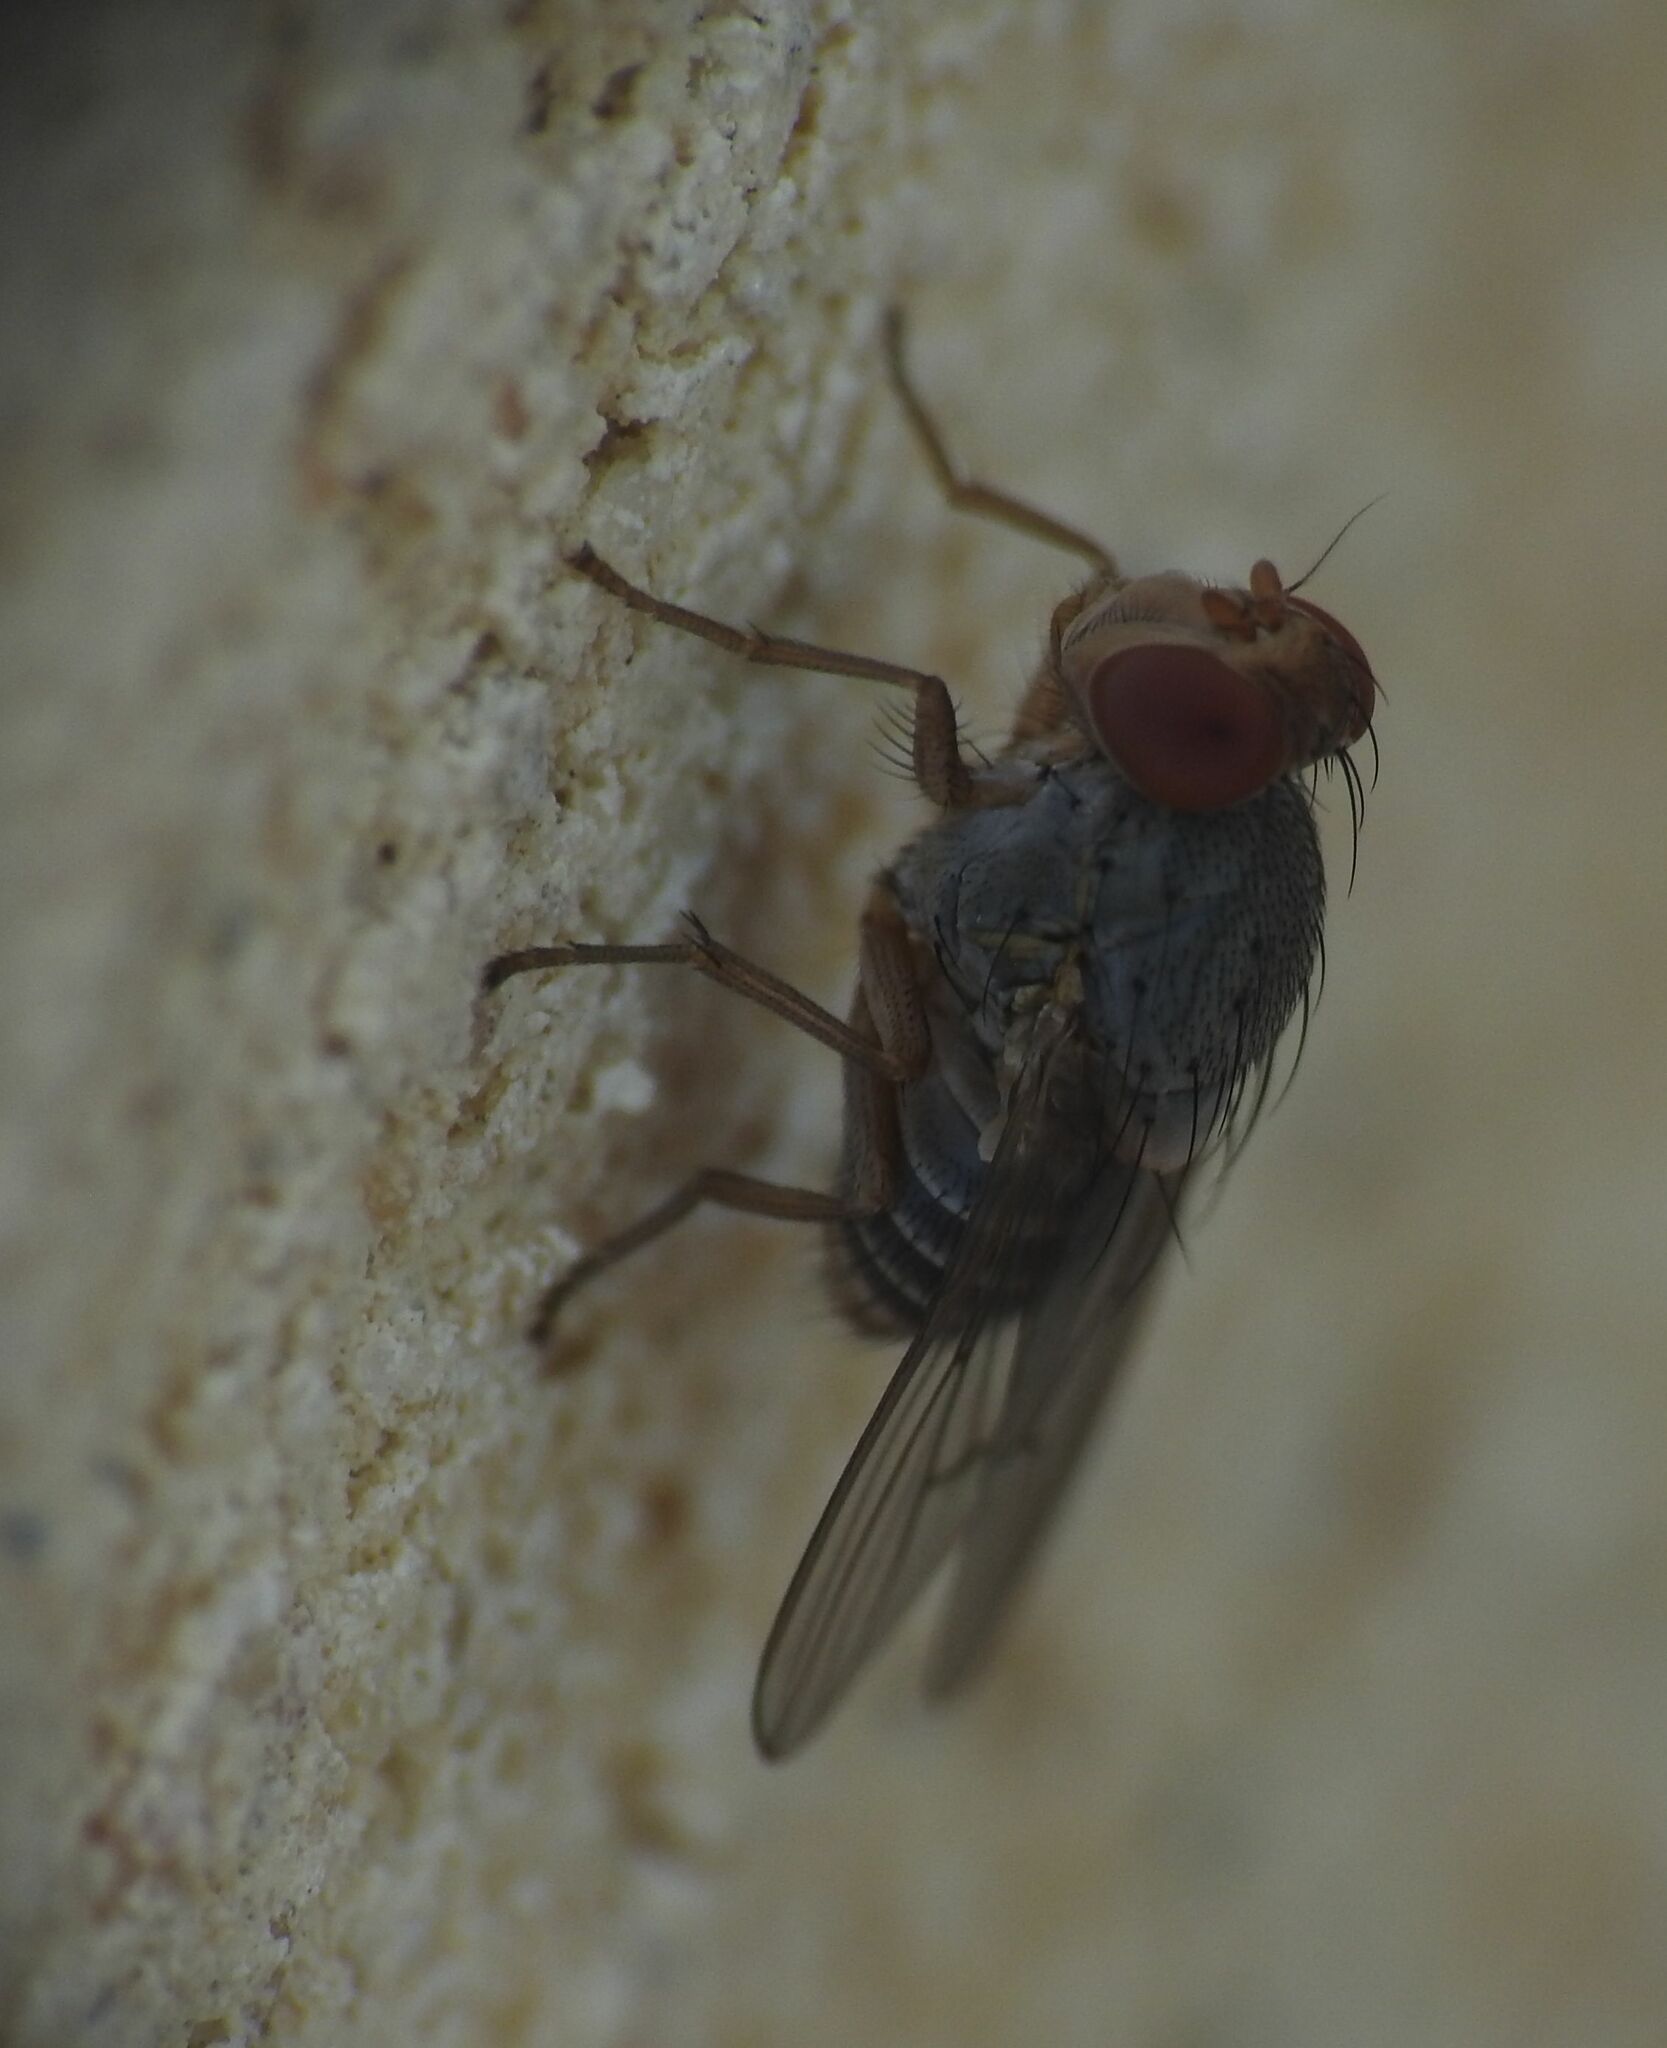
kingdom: Animalia
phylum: Arthropoda
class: Insecta
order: Diptera
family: Lauxaniidae
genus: Prosopomyia
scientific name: Prosopomyia pallida
